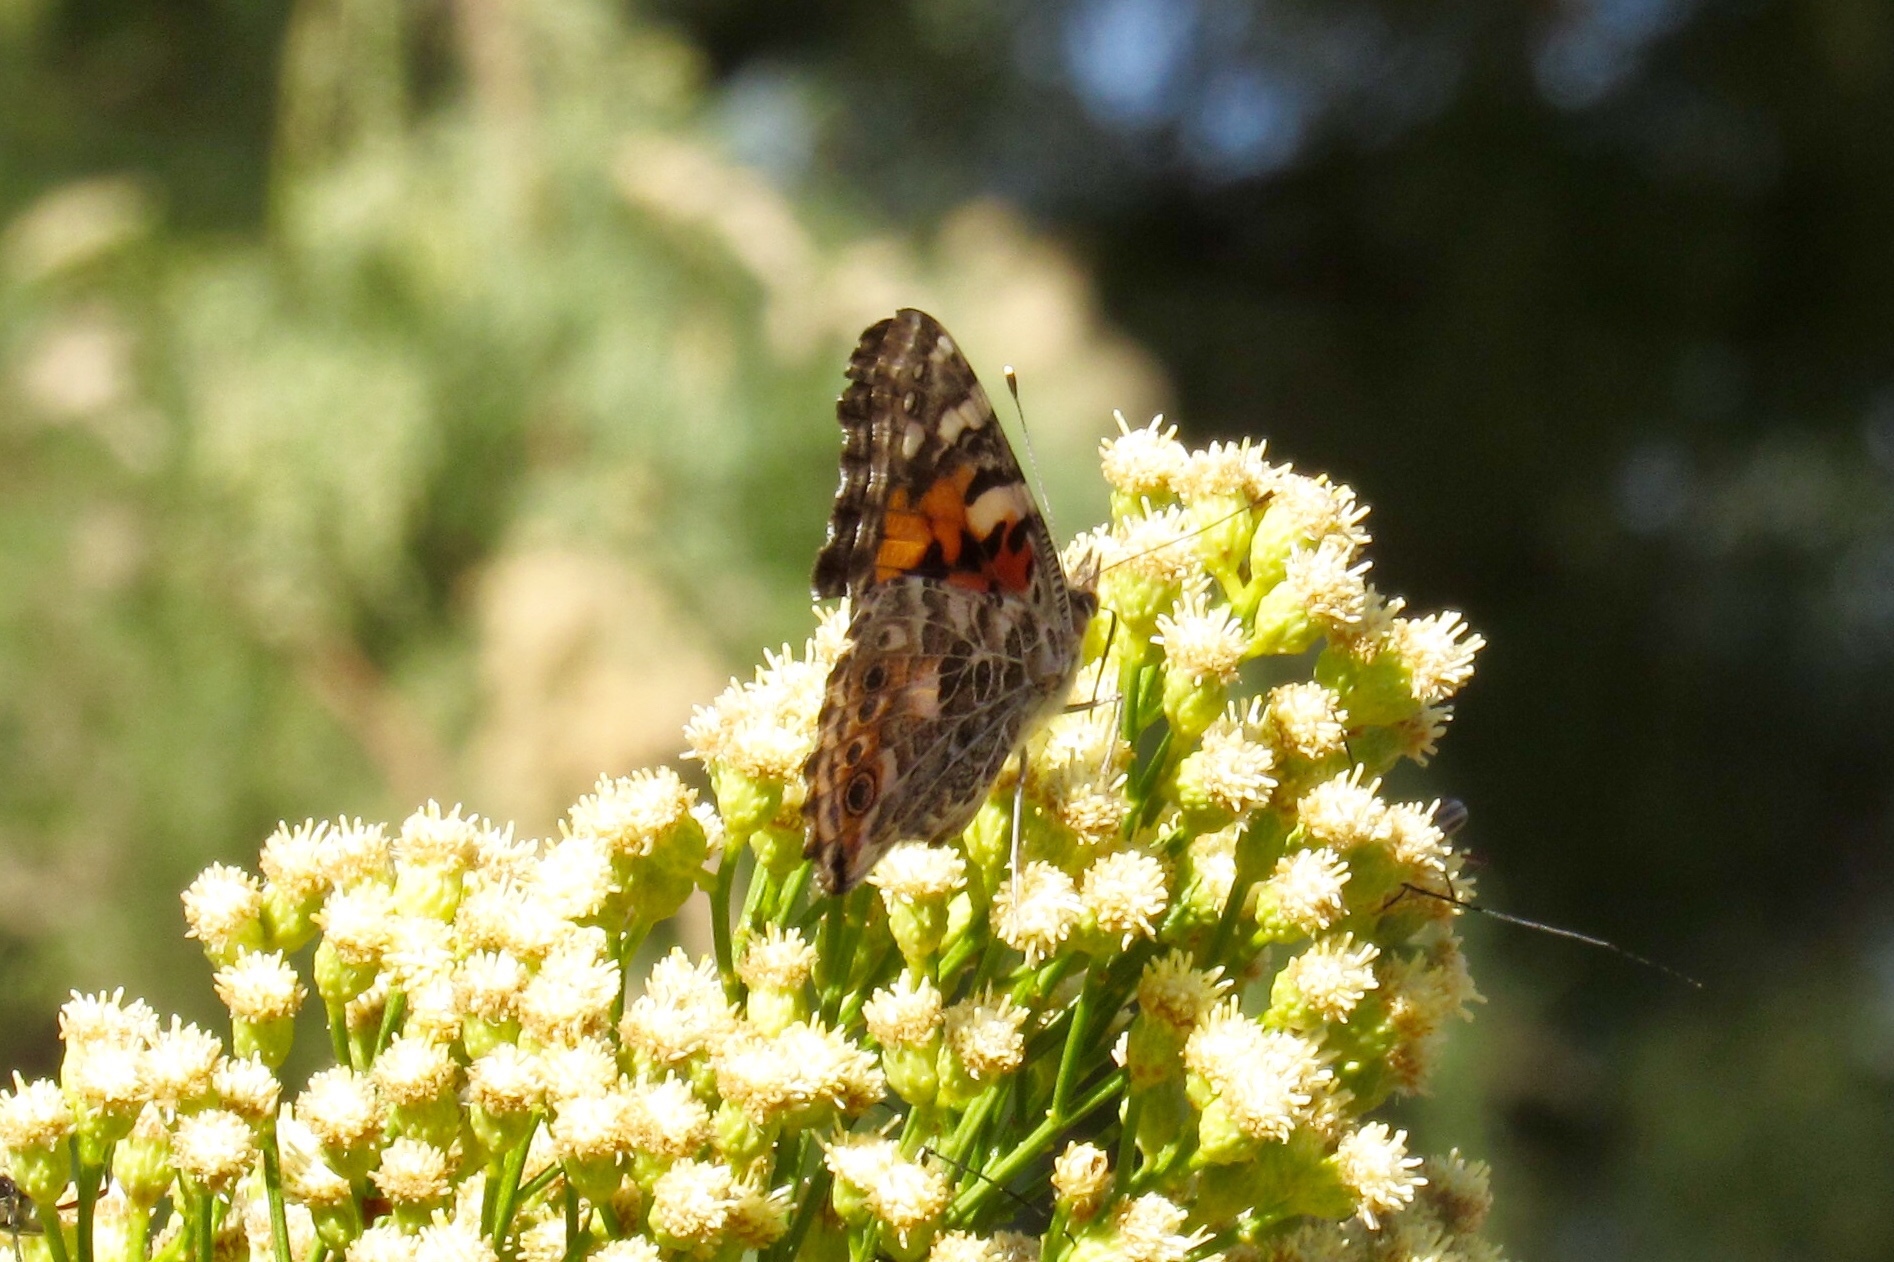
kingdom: Animalia
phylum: Arthropoda
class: Insecta
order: Lepidoptera
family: Nymphalidae
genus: Vanessa
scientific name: Vanessa cardui
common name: Painted lady
